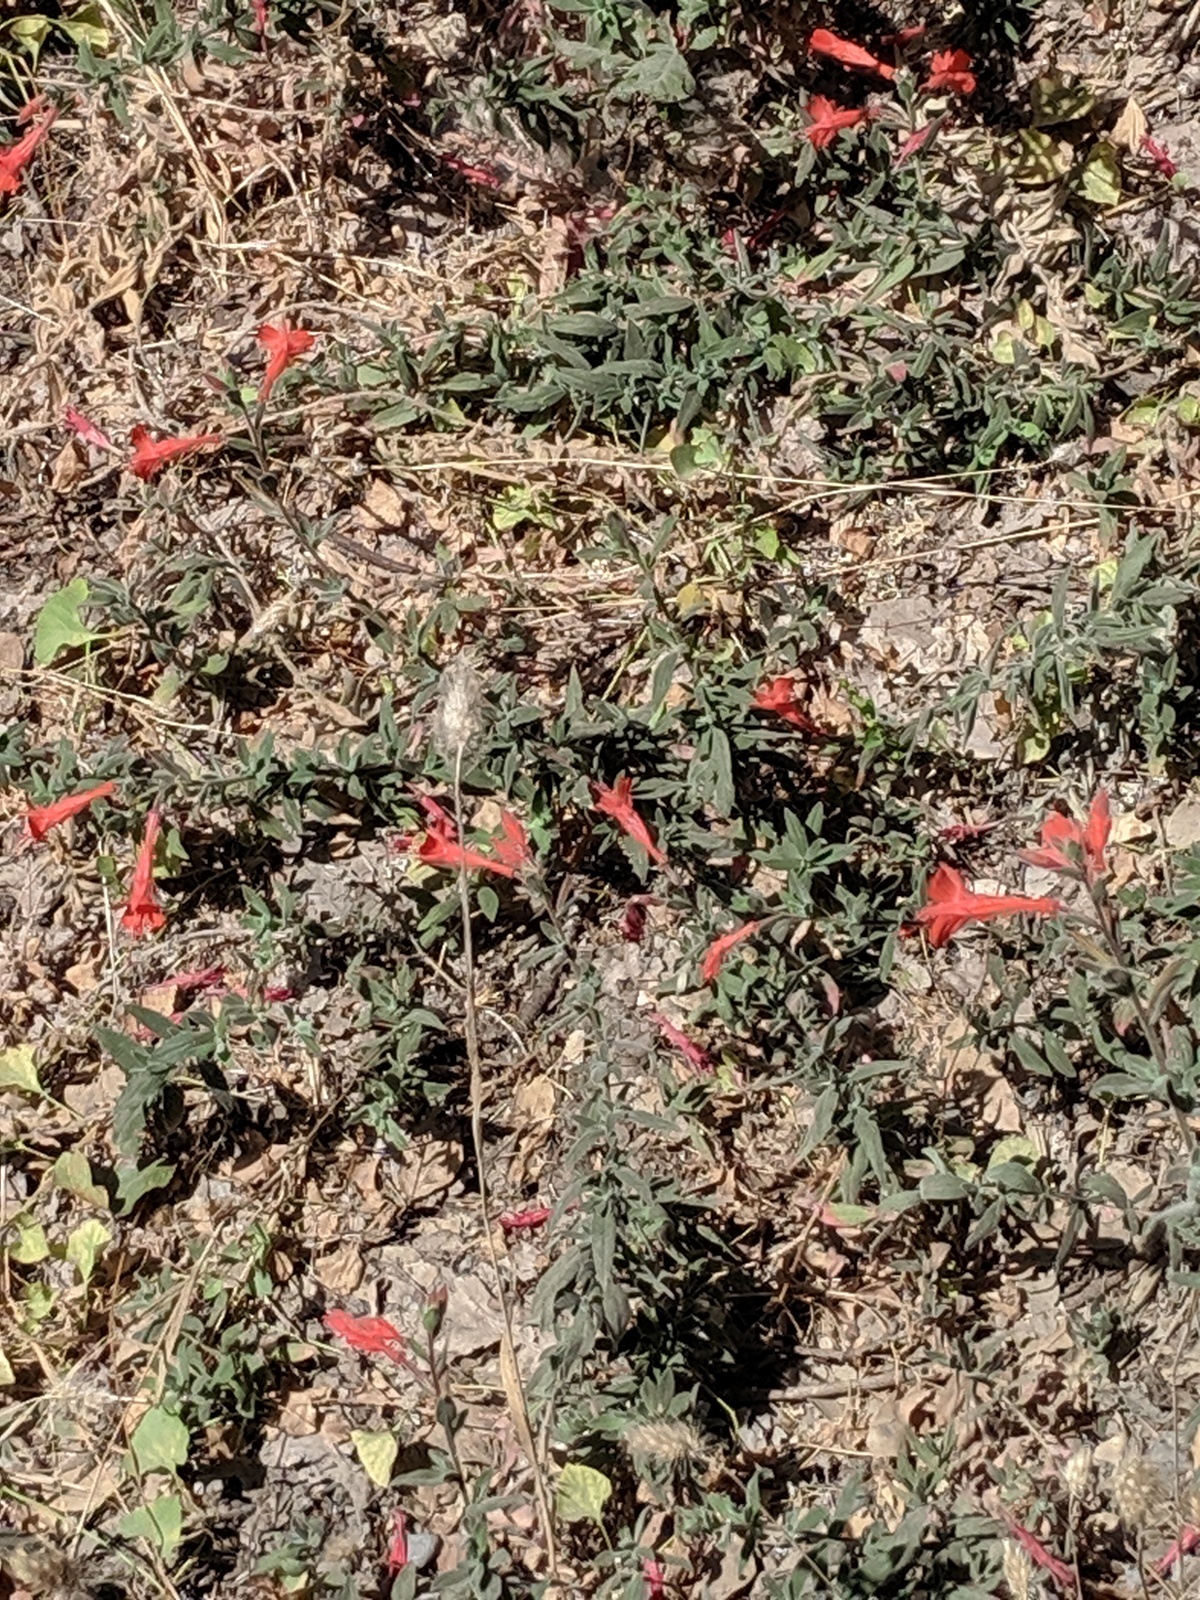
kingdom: Plantae
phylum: Tracheophyta
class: Magnoliopsida
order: Myrtales
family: Onagraceae
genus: Epilobium
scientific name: Epilobium canum
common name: California-fuchsia
